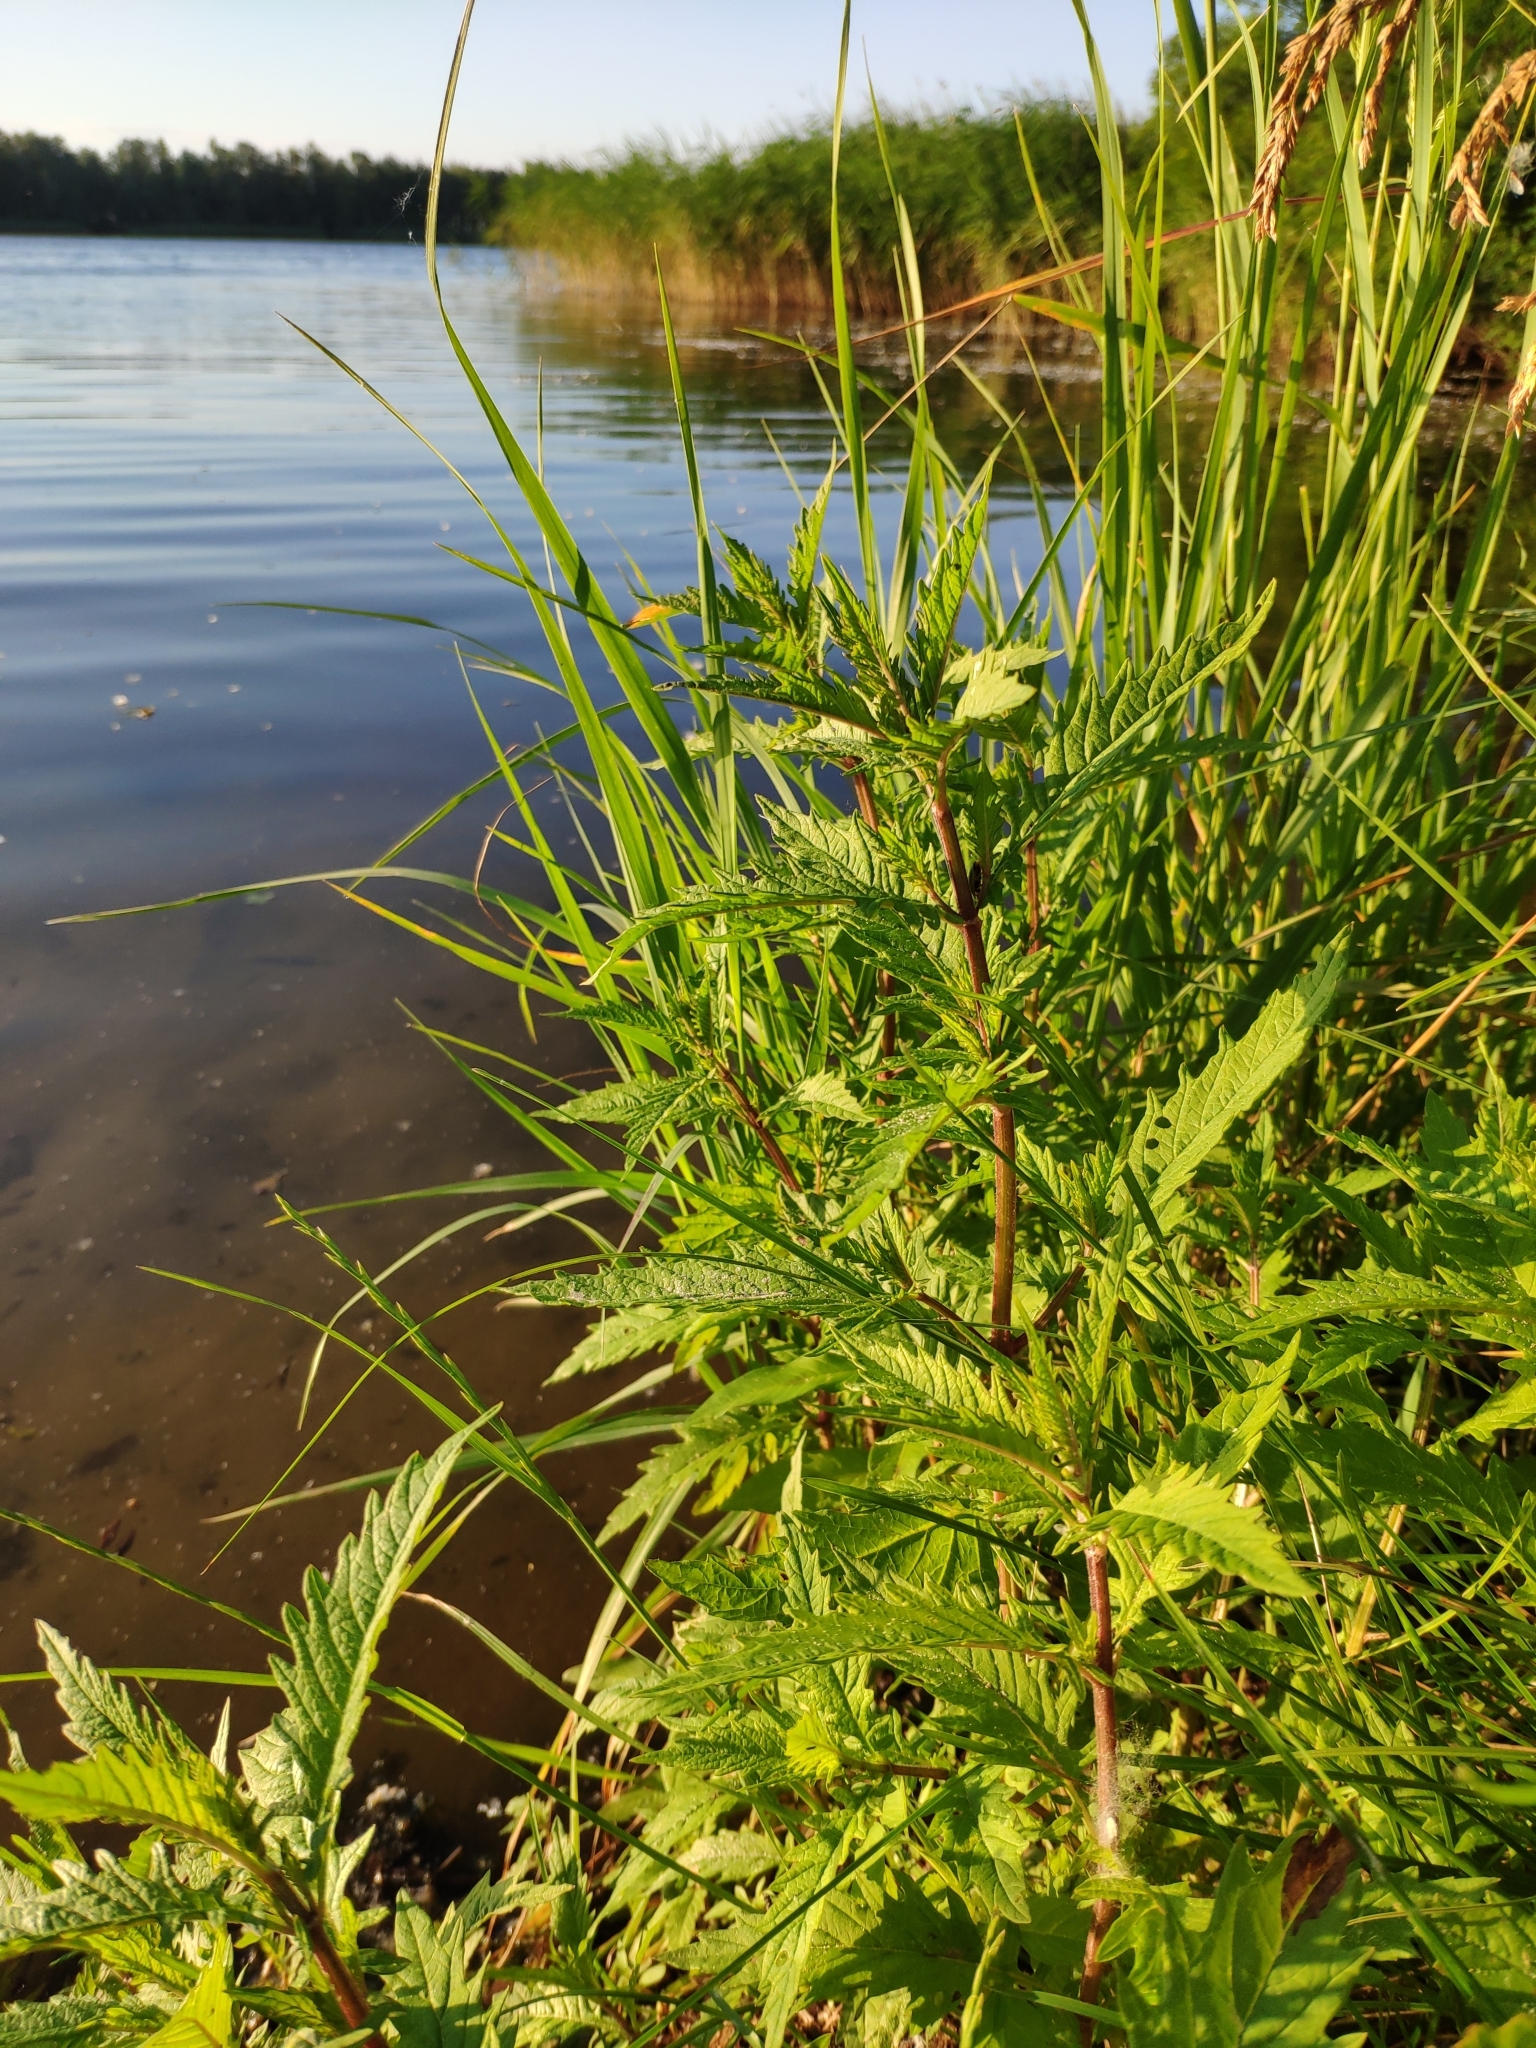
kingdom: Plantae
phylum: Tracheophyta
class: Magnoliopsida
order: Lamiales
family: Lamiaceae
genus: Lycopus
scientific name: Lycopus europaeus
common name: European bugleweed
